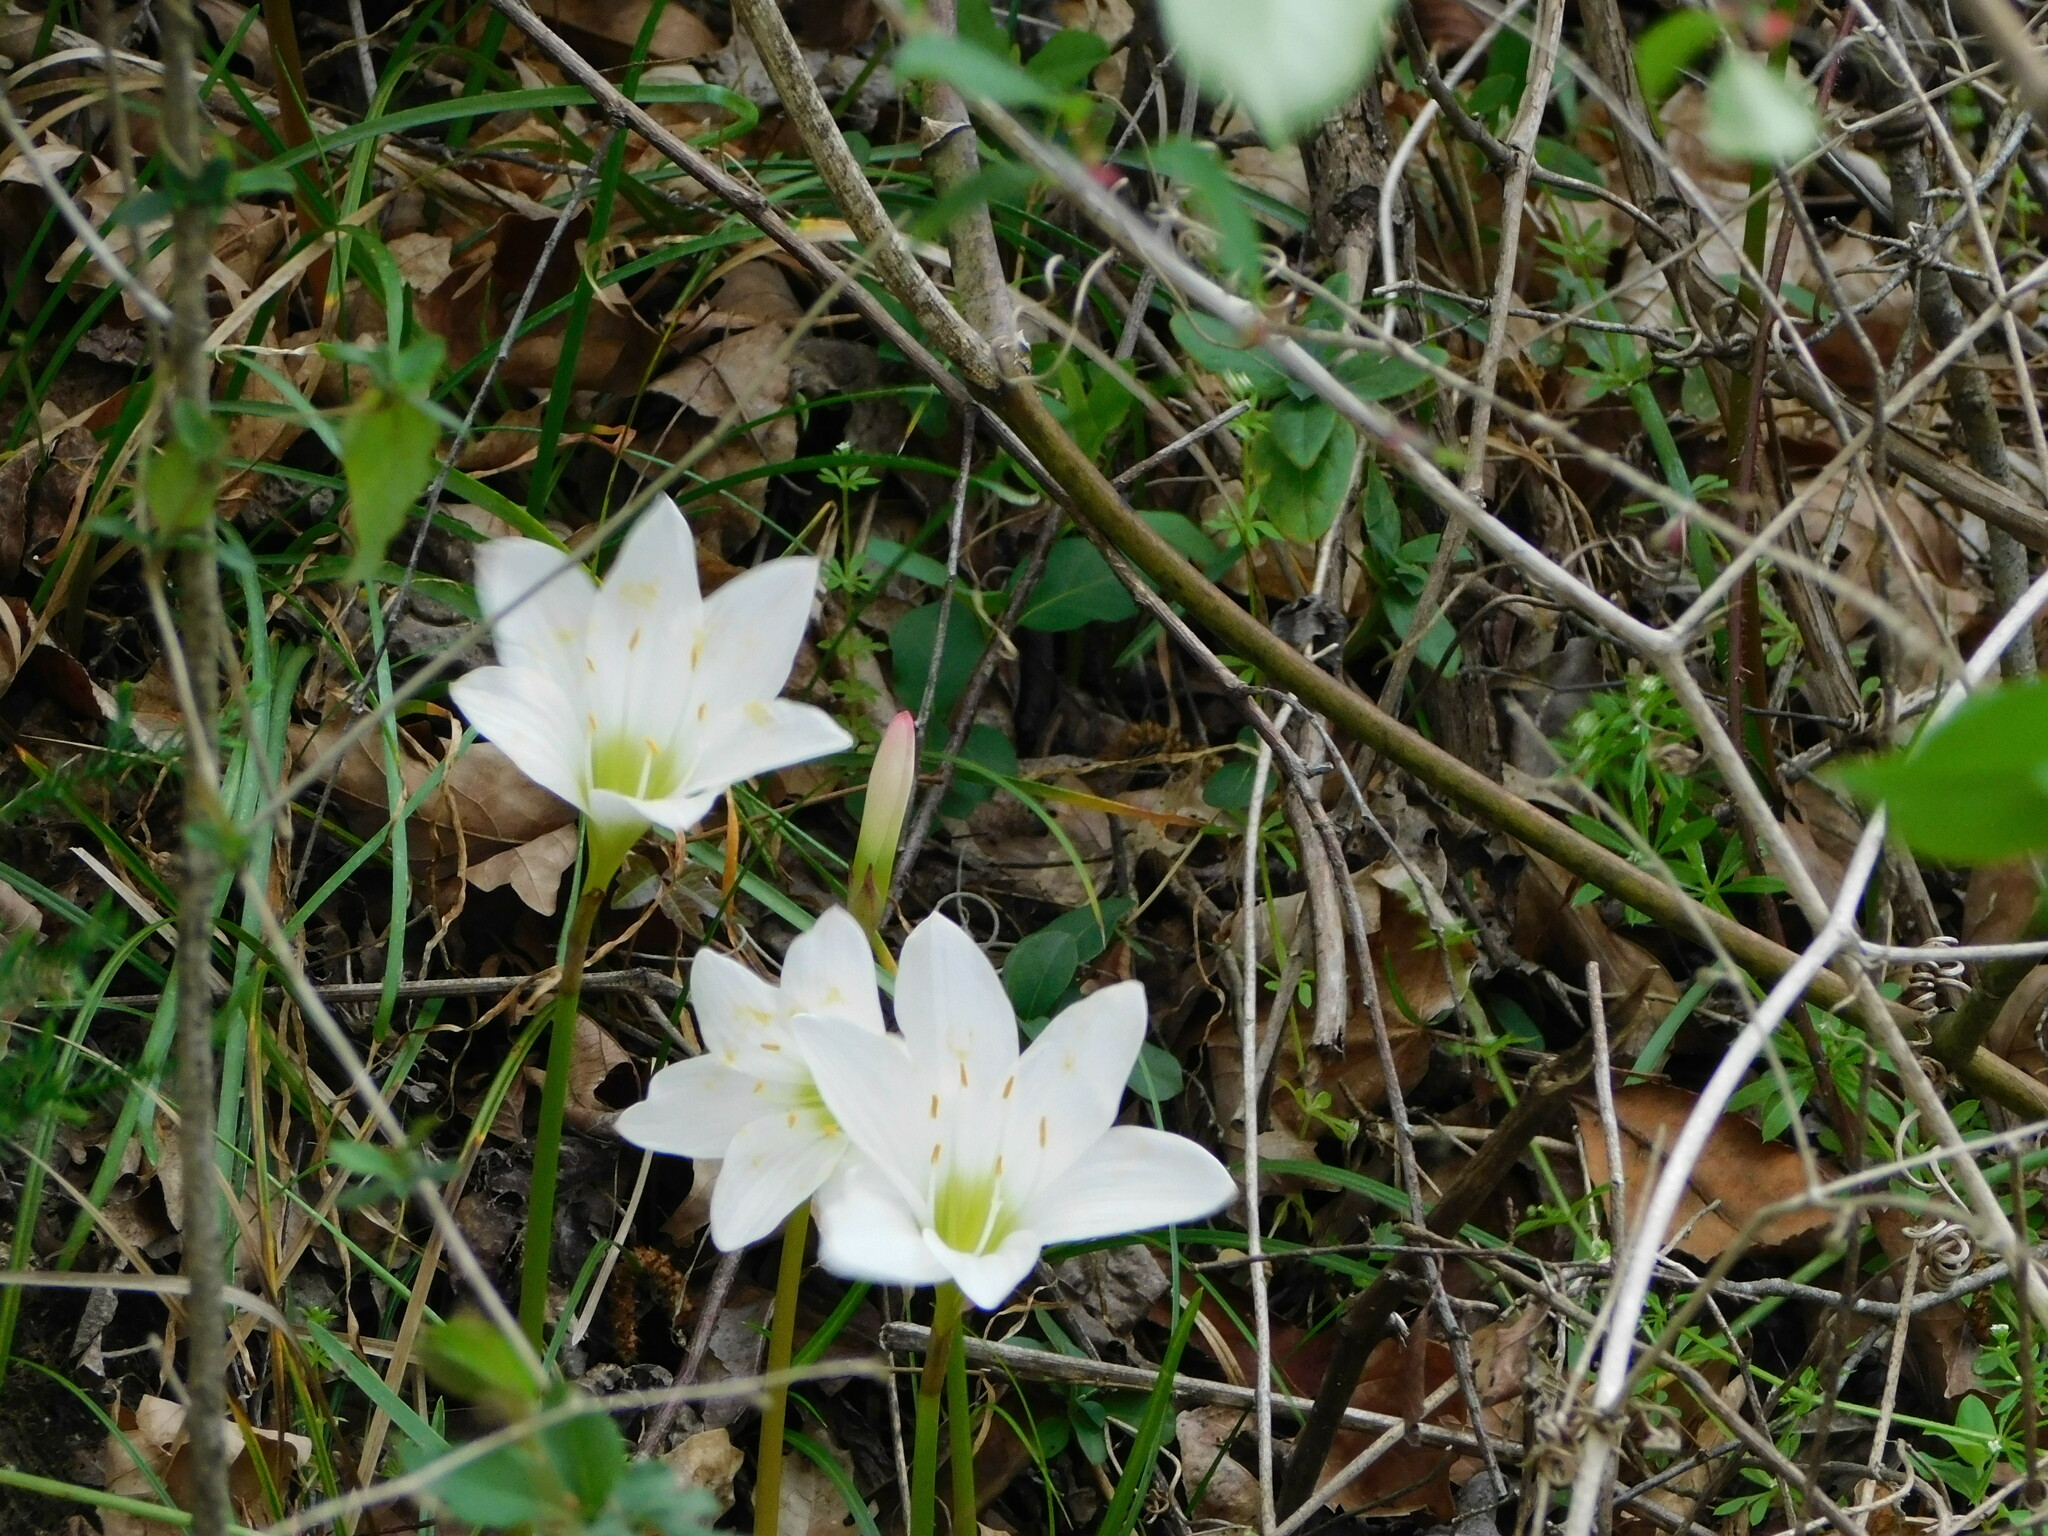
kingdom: Plantae
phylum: Tracheophyta
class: Liliopsida
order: Asparagales
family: Amaryllidaceae
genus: Zephyranthes
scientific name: Zephyranthes atamasco
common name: Atamasco lily
